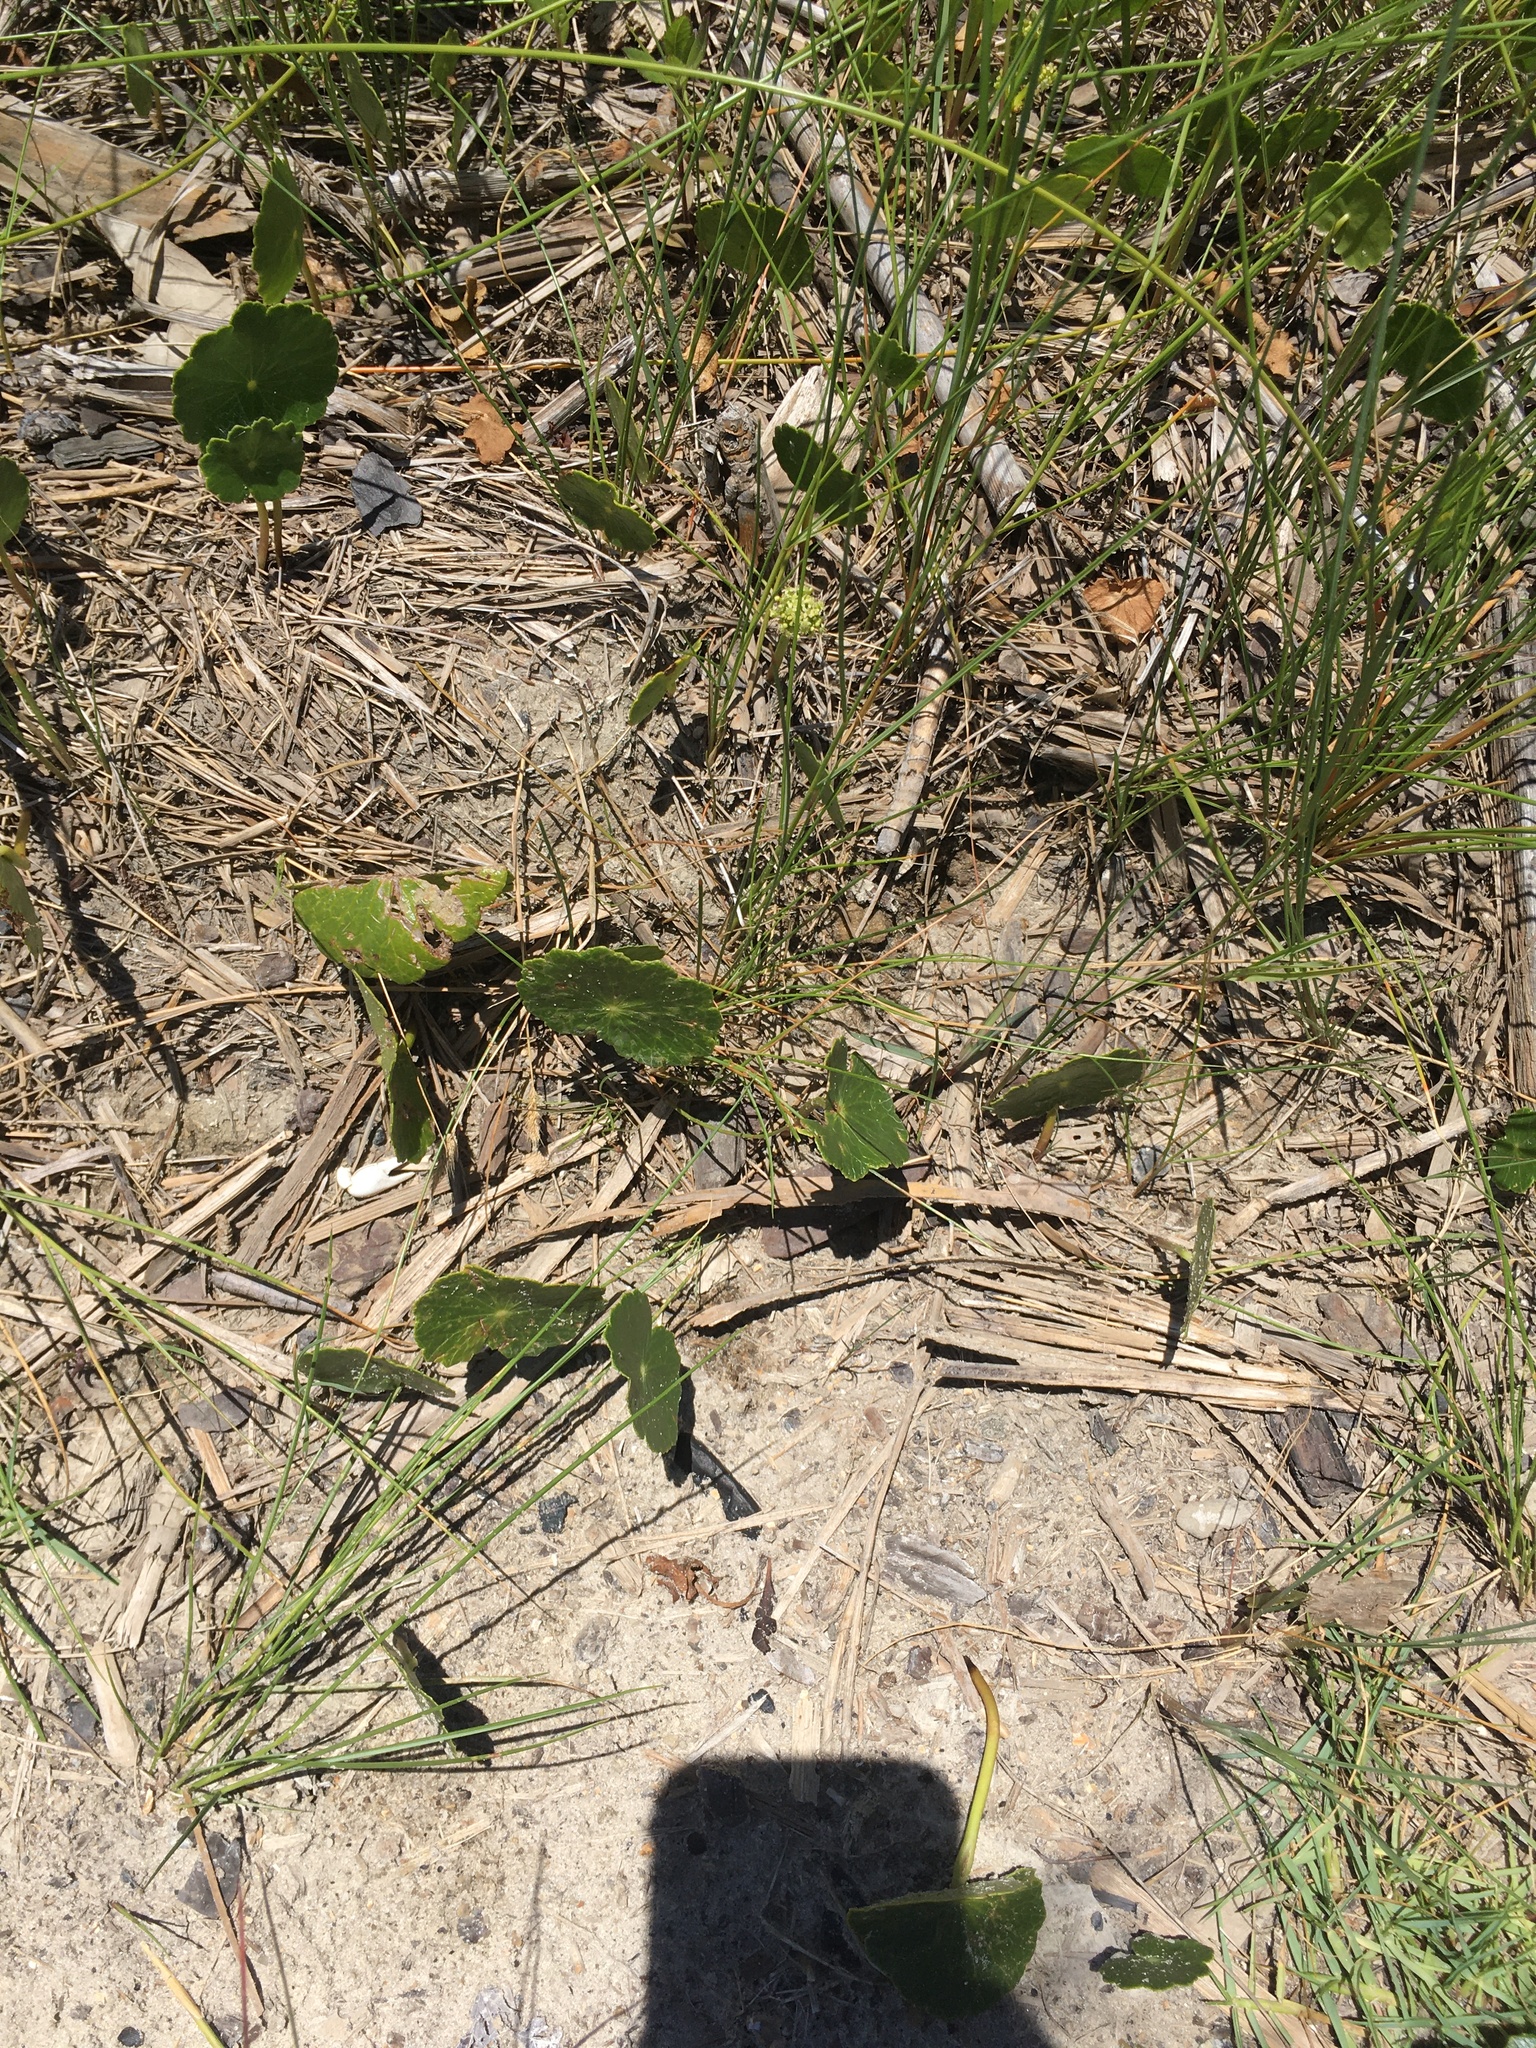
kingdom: Plantae
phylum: Tracheophyta
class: Magnoliopsida
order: Apiales
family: Araliaceae
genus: Hydrocotyle
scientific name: Hydrocotyle bonariensis
